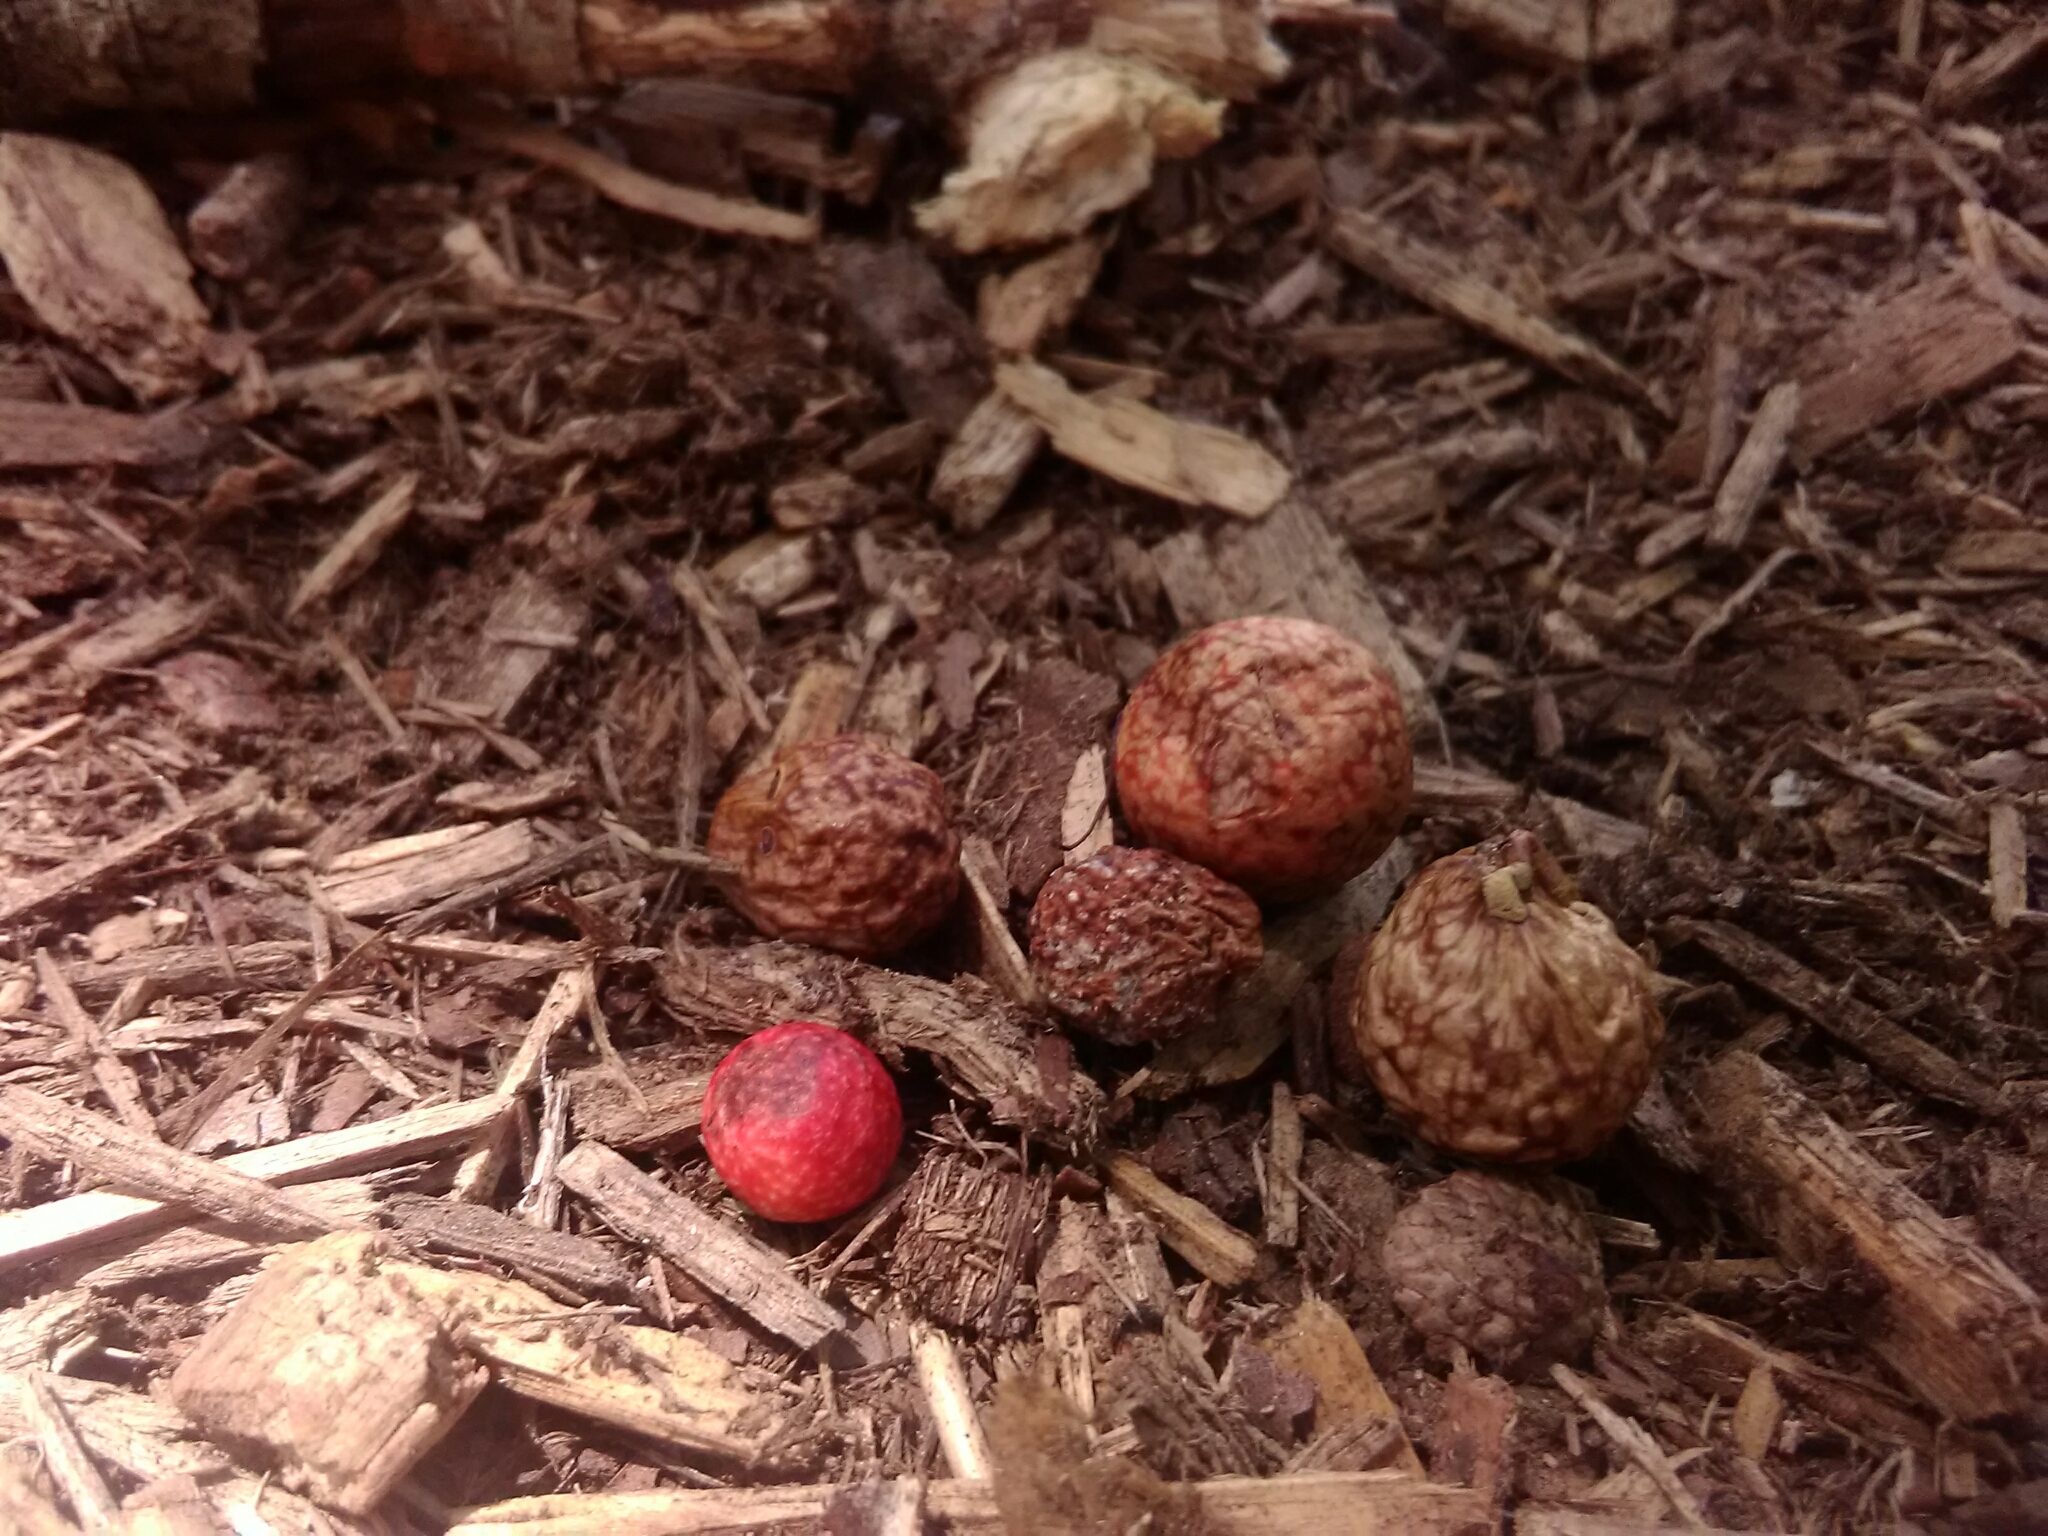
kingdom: Animalia
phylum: Arthropoda
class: Insecta
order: Hymenoptera
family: Cynipidae
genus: Amphibolips
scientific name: Amphibolips
